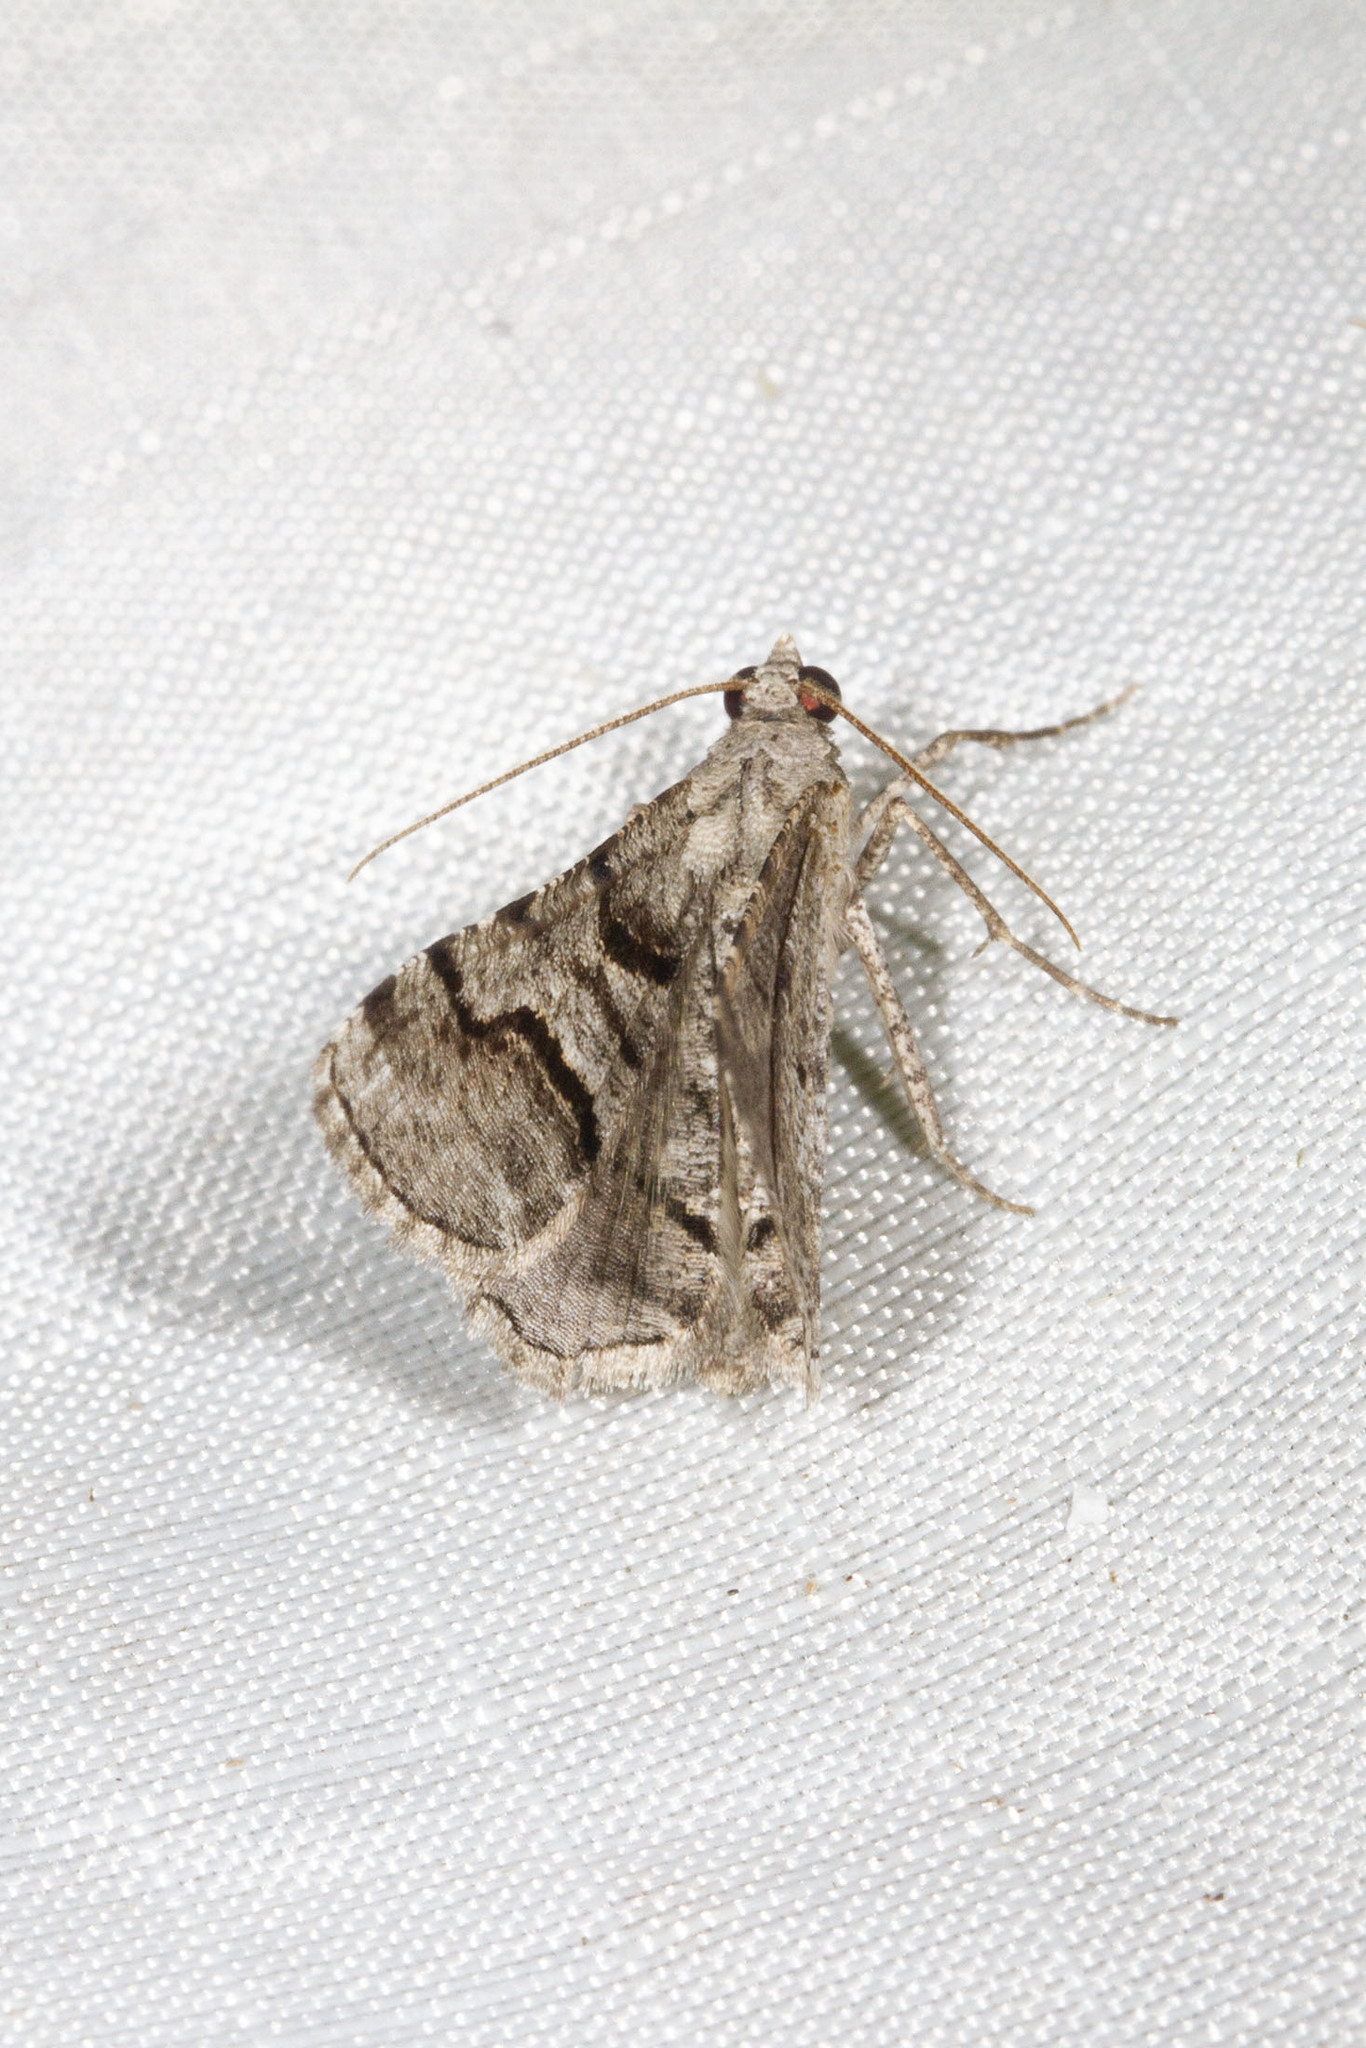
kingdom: Animalia
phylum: Arthropoda
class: Insecta
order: Lepidoptera
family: Geometridae
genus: Digrammia
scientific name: Digrammia continuata
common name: Curve-lined angle
